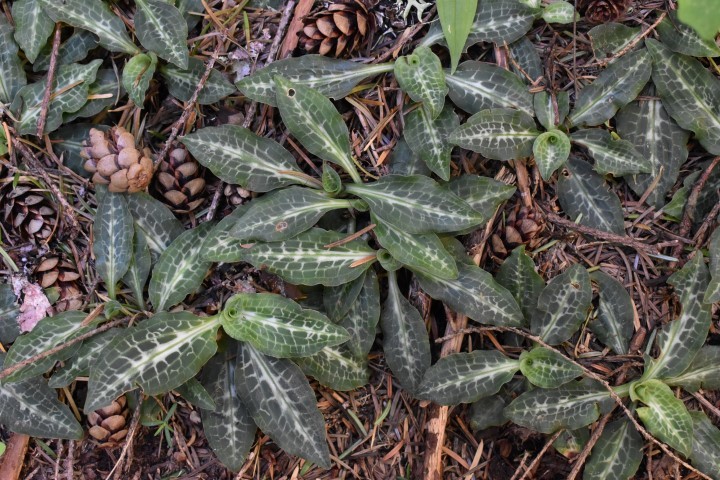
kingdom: Plantae
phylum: Tracheophyta
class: Liliopsida
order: Asparagales
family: Orchidaceae
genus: Goodyera
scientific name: Goodyera oblongifolia
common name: Giant rattlesnake-plantain
